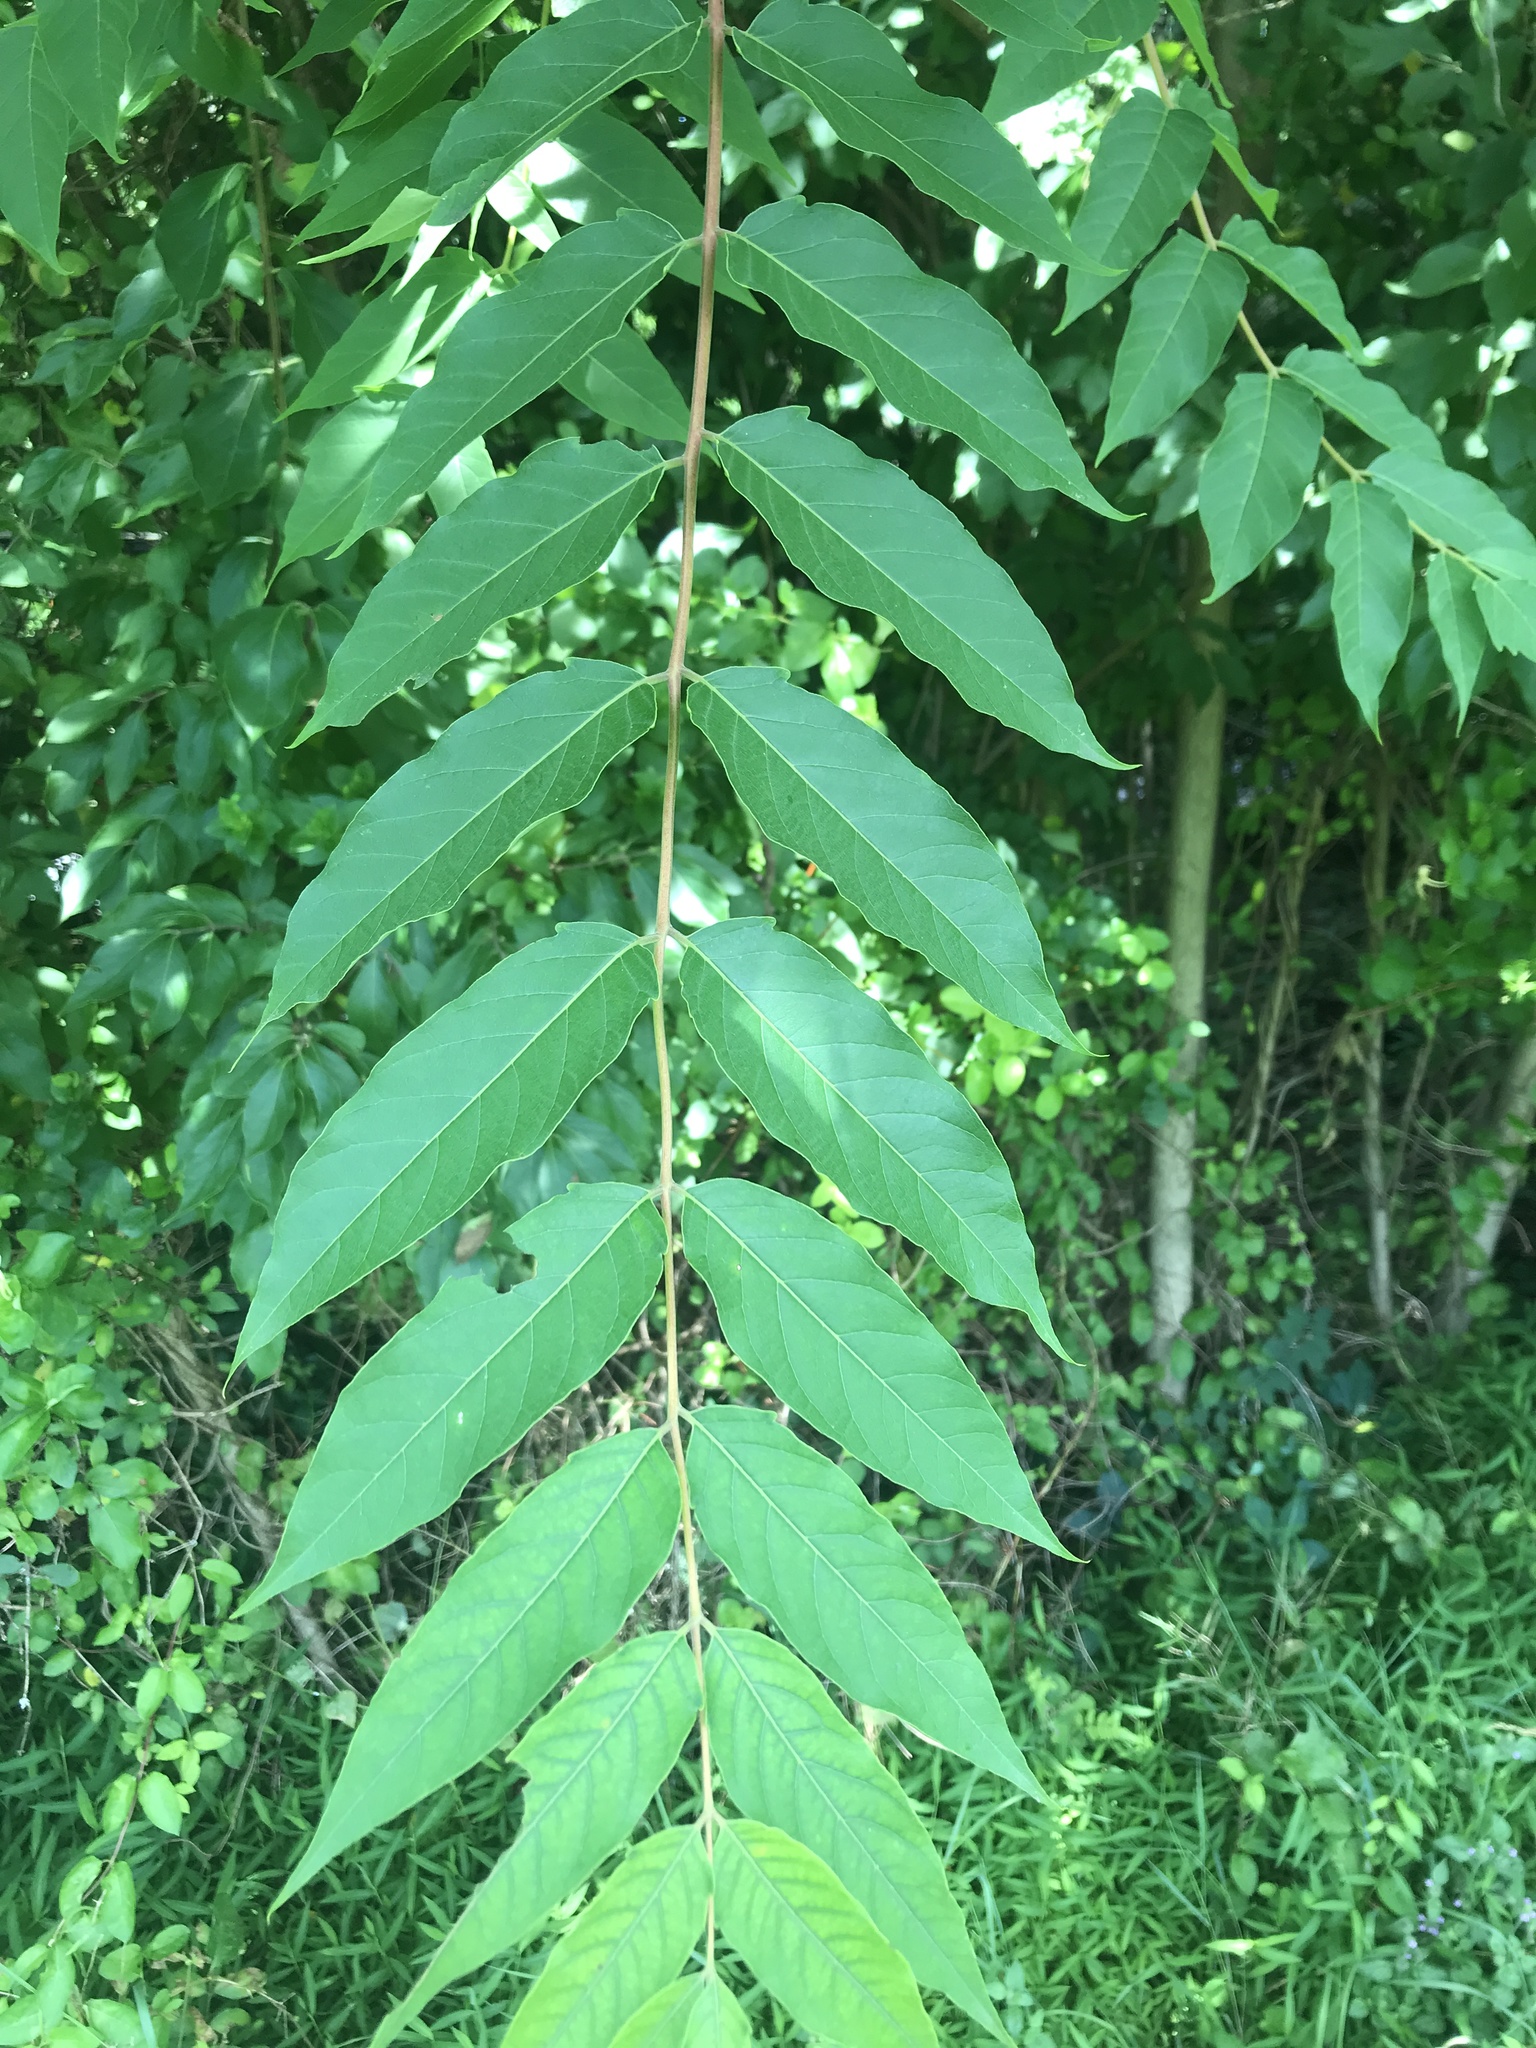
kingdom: Plantae
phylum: Tracheophyta
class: Magnoliopsida
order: Sapindales
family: Simaroubaceae
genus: Ailanthus
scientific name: Ailanthus altissima
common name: Tree-of-heaven
